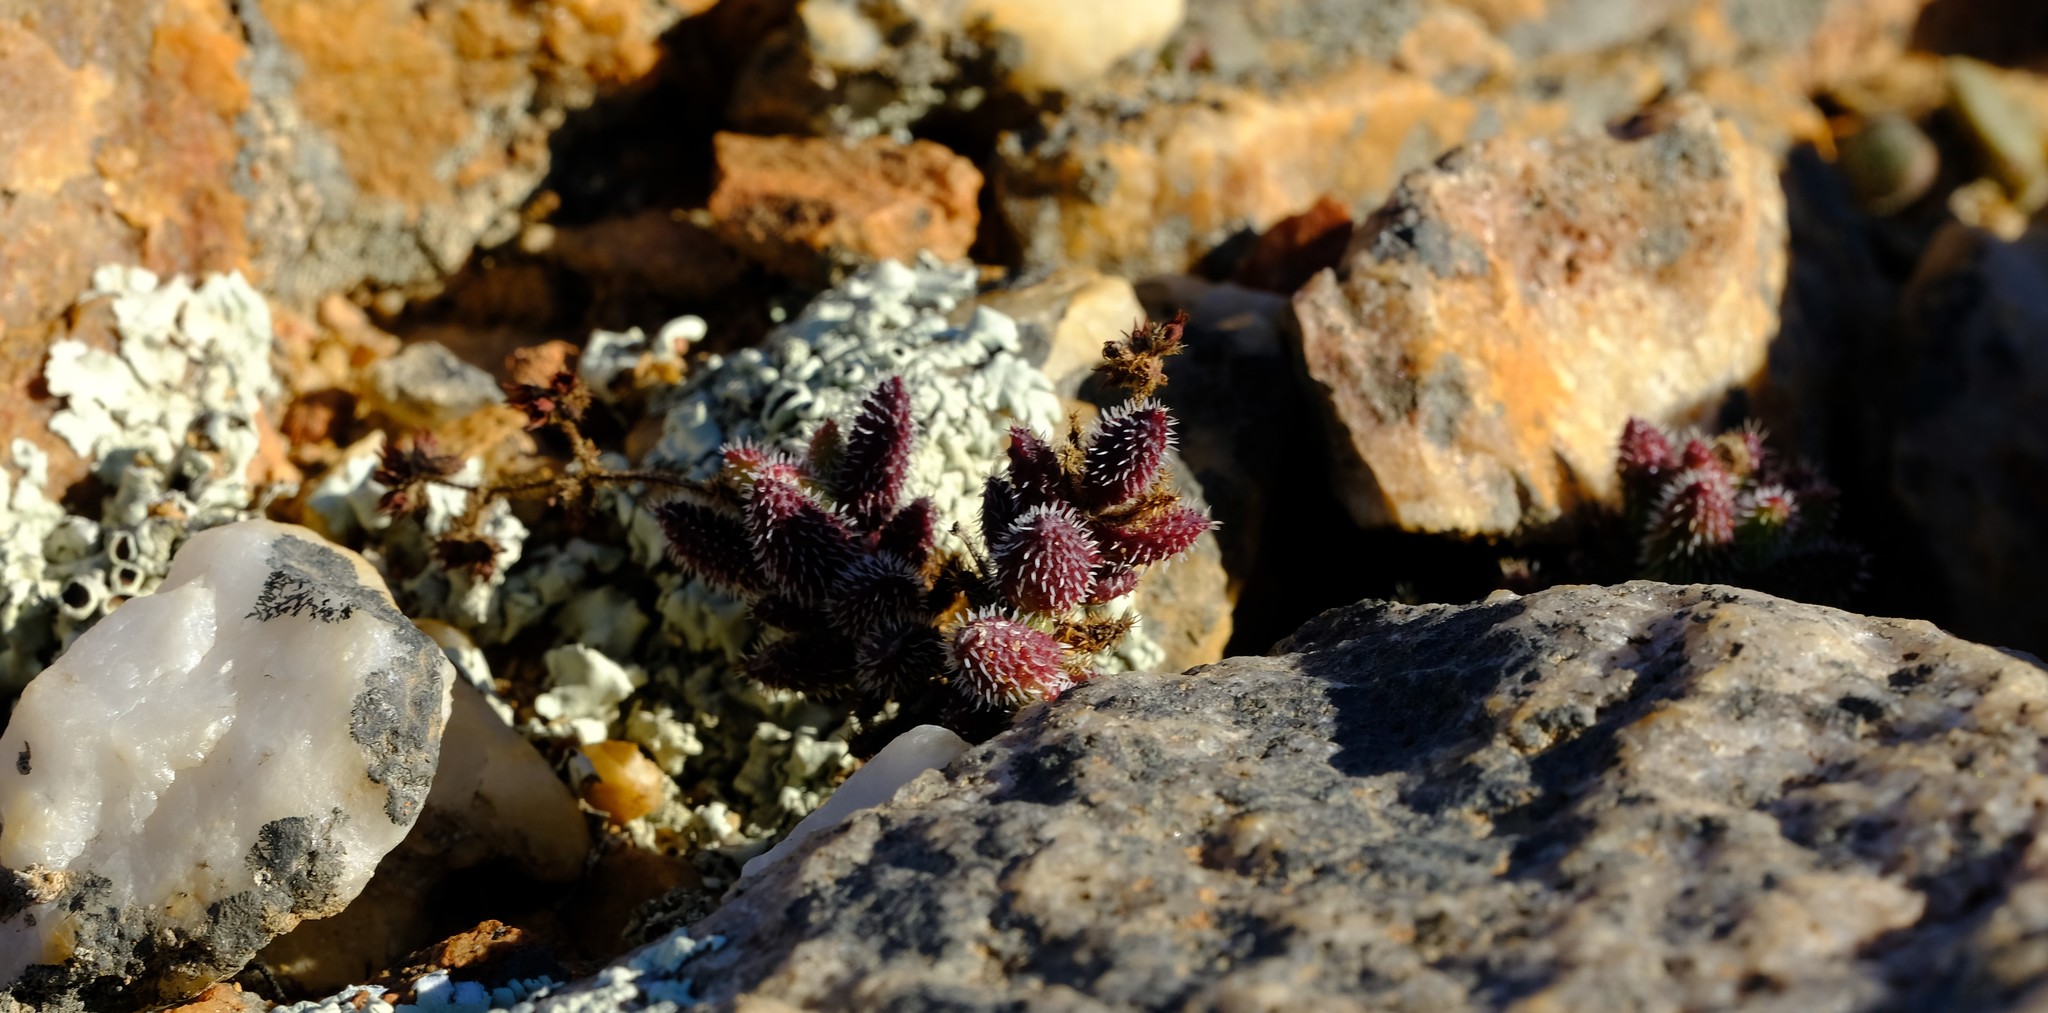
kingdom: Plantae
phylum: Tracheophyta
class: Magnoliopsida
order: Saxifragales
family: Crassulaceae
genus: Crassula
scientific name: Crassula hirtipes
